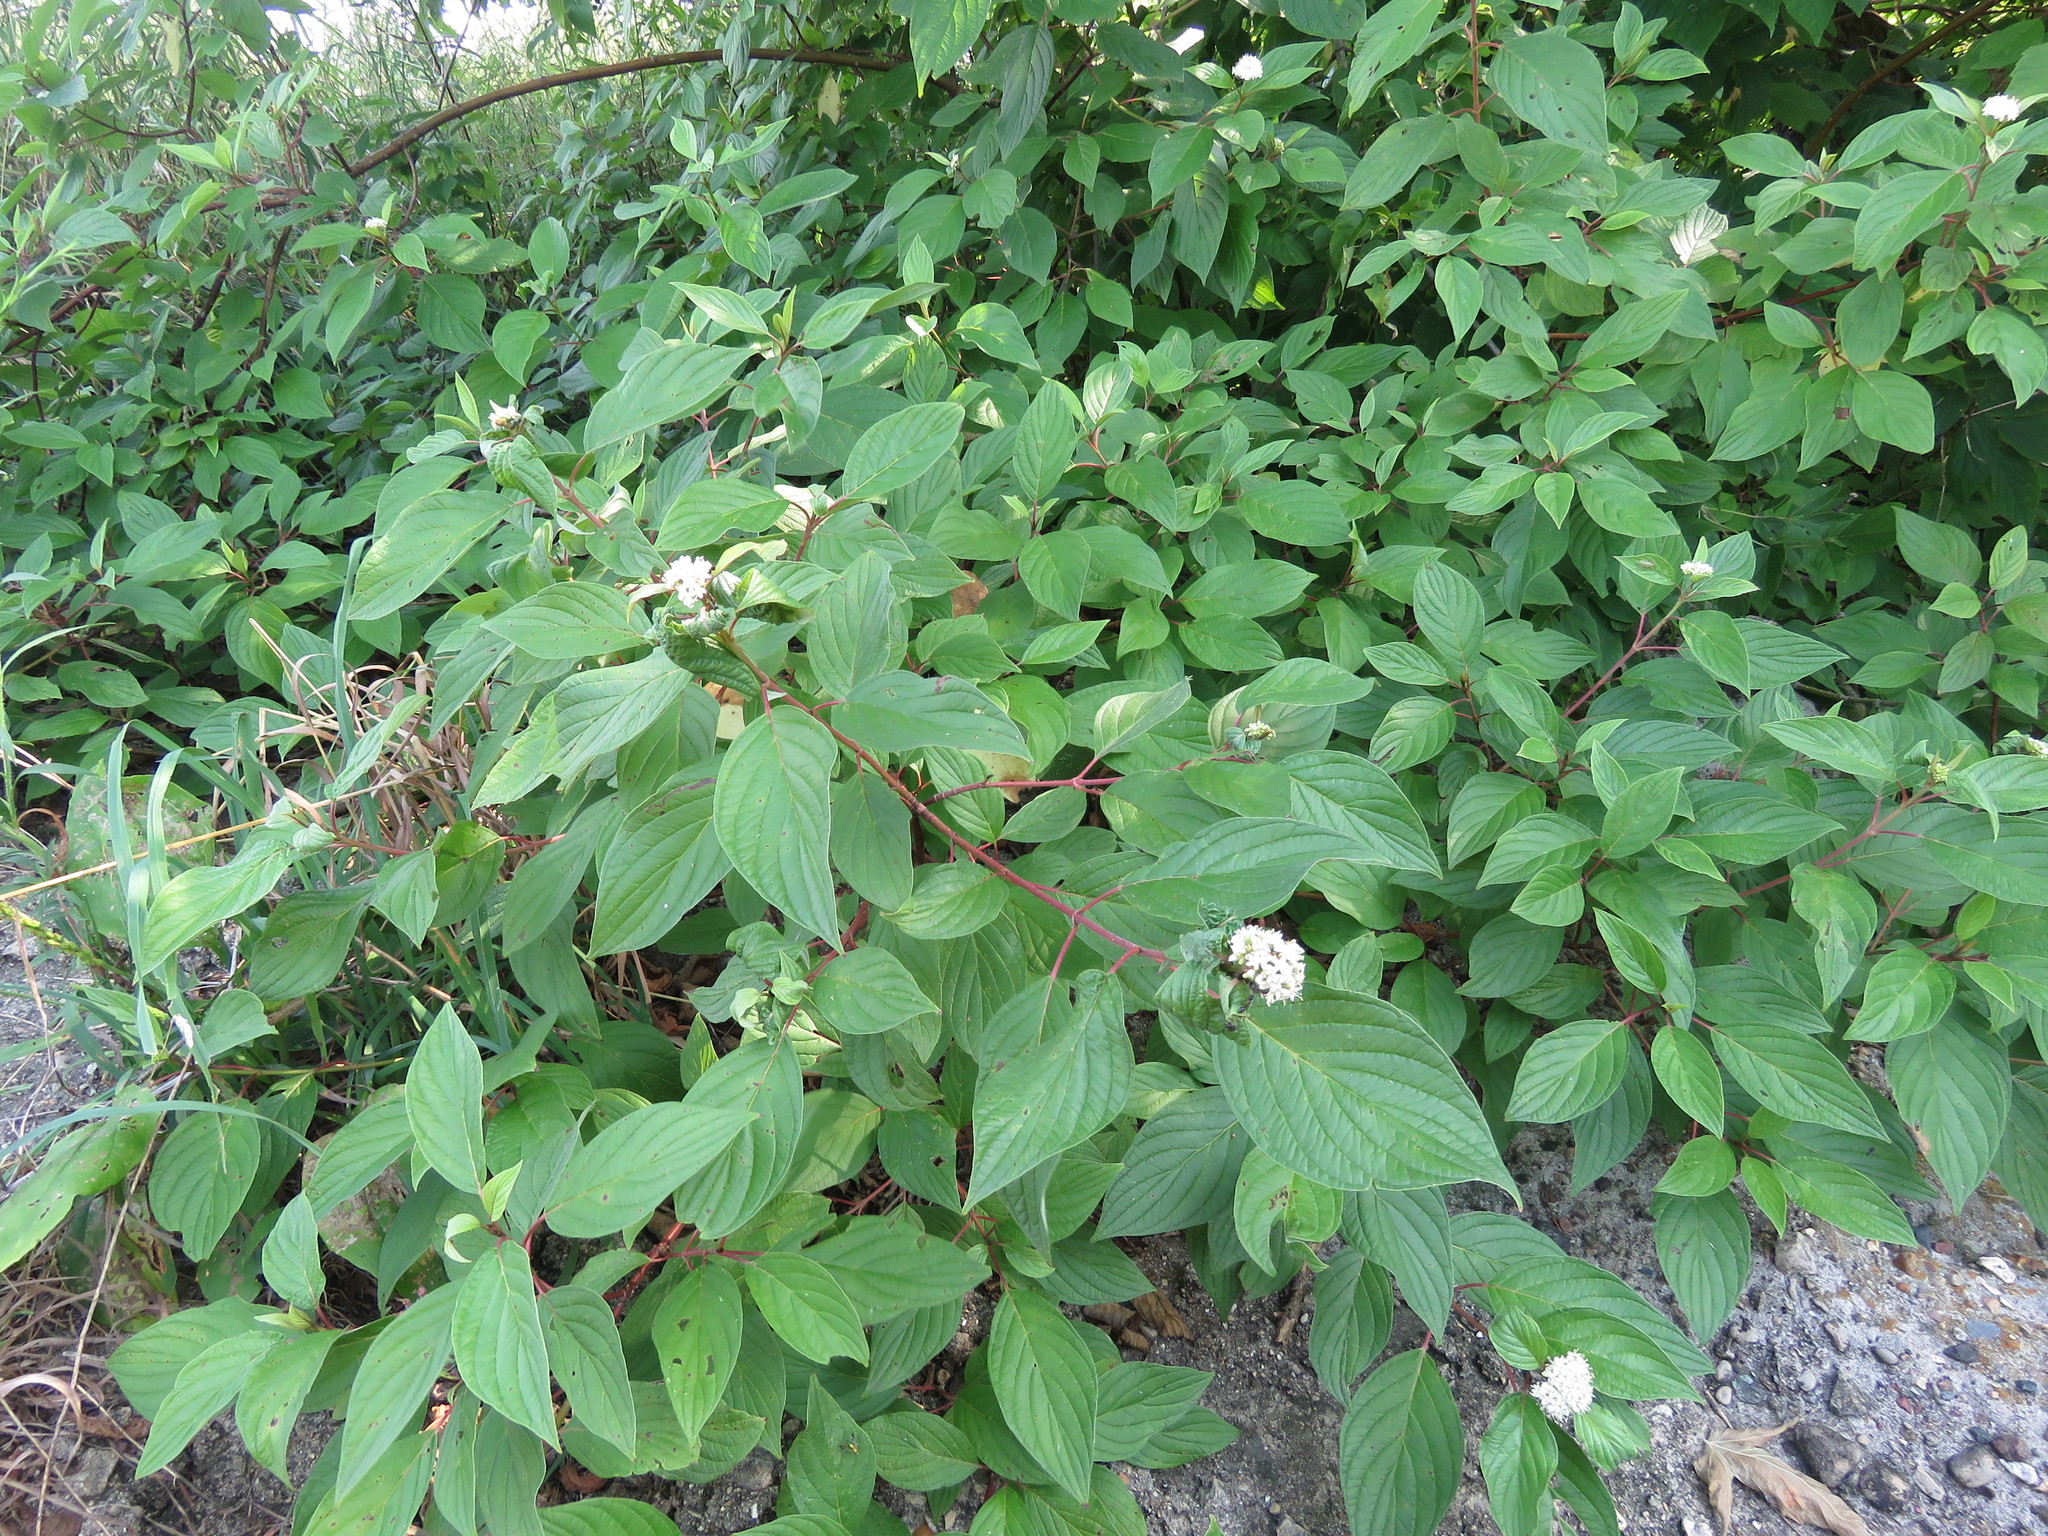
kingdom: Plantae
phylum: Tracheophyta
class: Magnoliopsida
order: Cornales
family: Cornaceae
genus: Cornus
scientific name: Cornus sericea
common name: Red-osier dogwood
